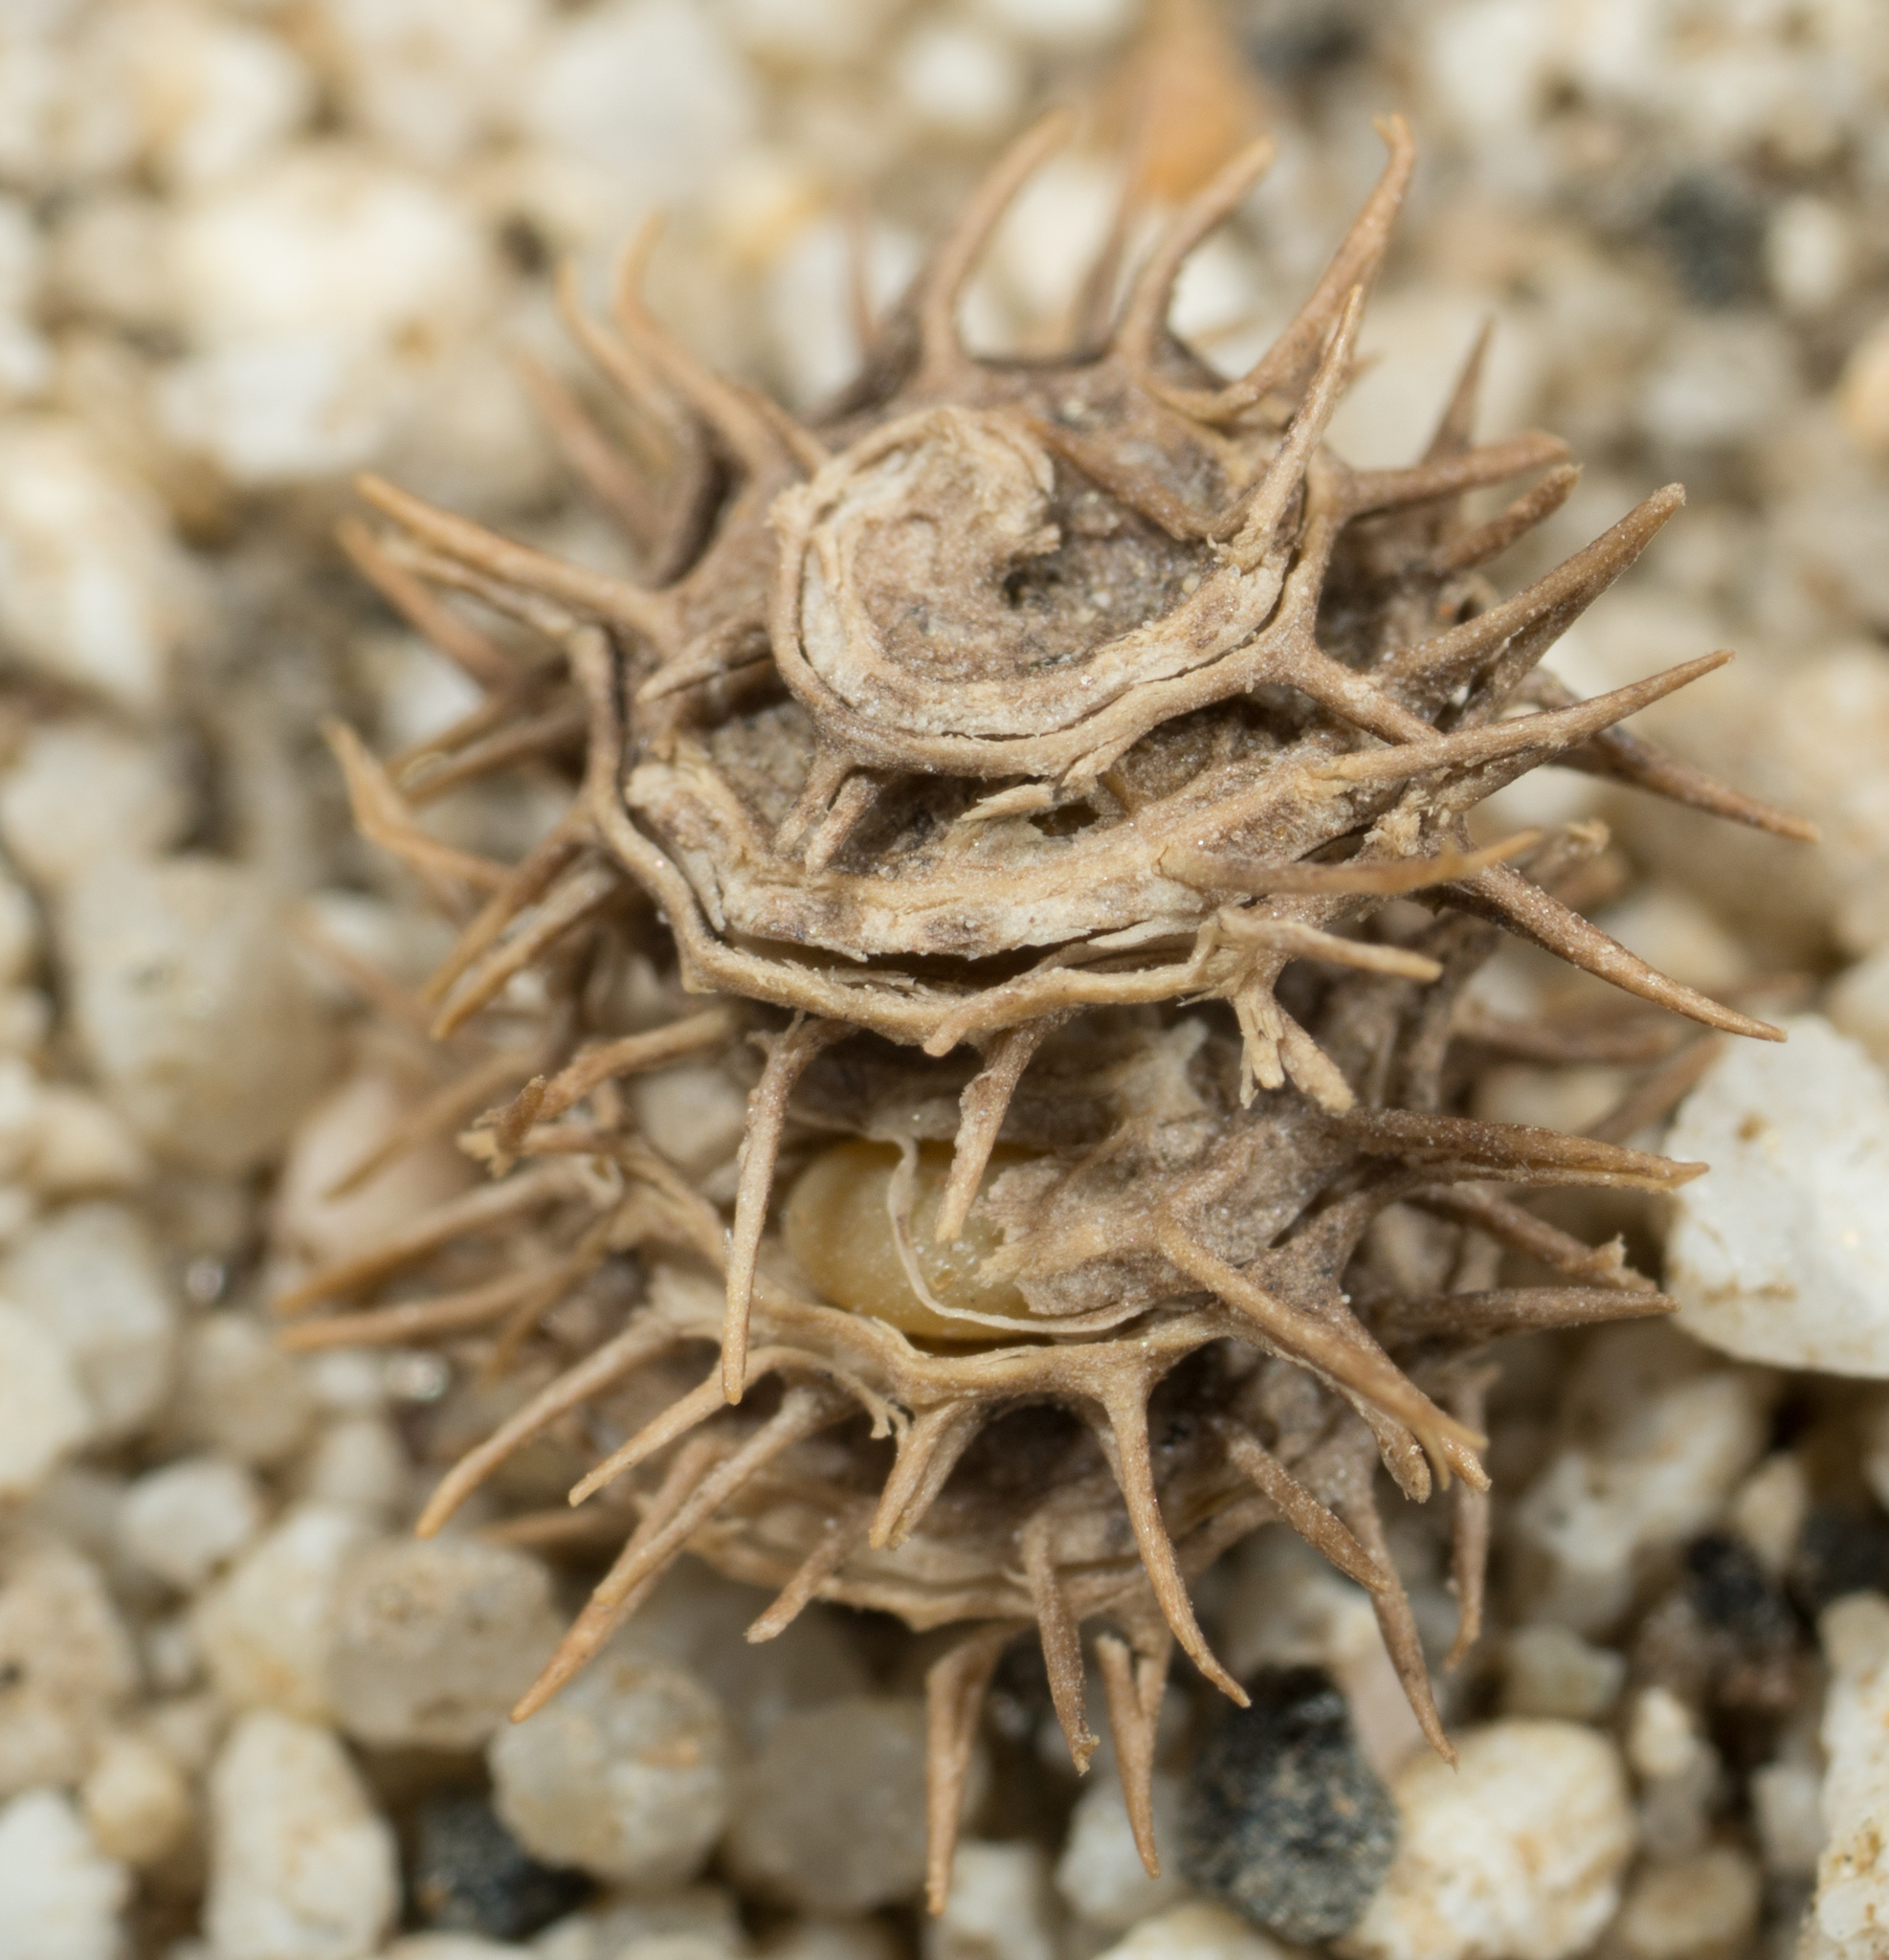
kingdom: Plantae
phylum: Tracheophyta
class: Magnoliopsida
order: Fabales
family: Fabaceae
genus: Medicago
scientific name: Medicago polymorpha
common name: Burclover
